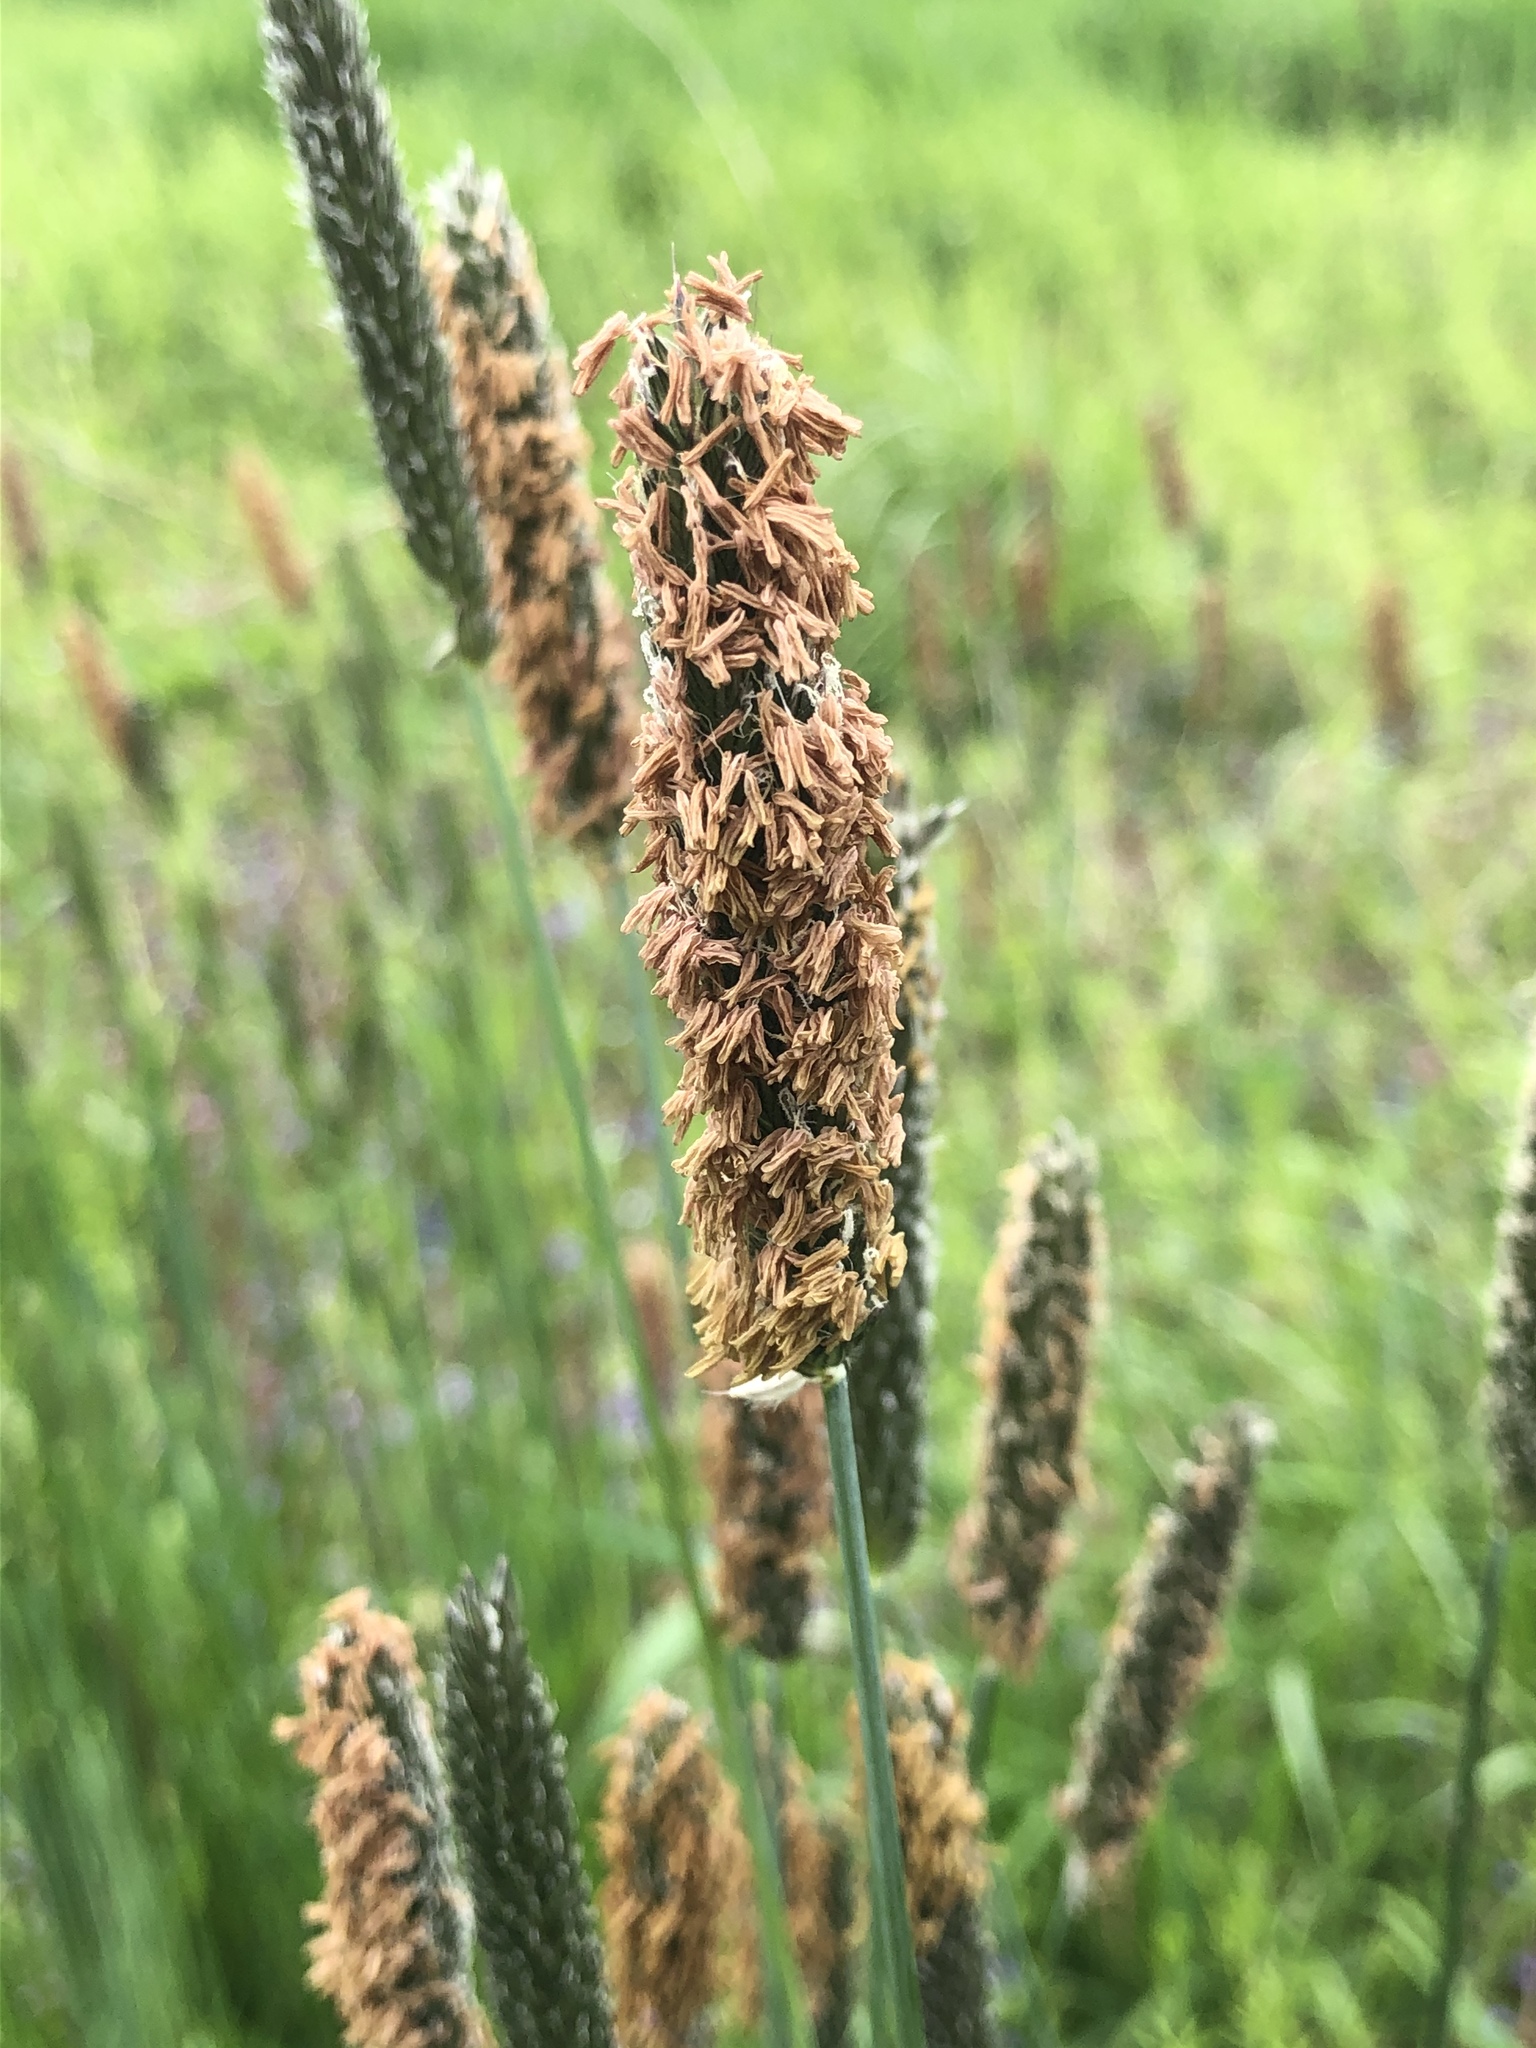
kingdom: Plantae
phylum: Tracheophyta
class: Liliopsida
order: Poales
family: Poaceae
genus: Alopecurus
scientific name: Alopecurus pratensis
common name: Meadow foxtail
